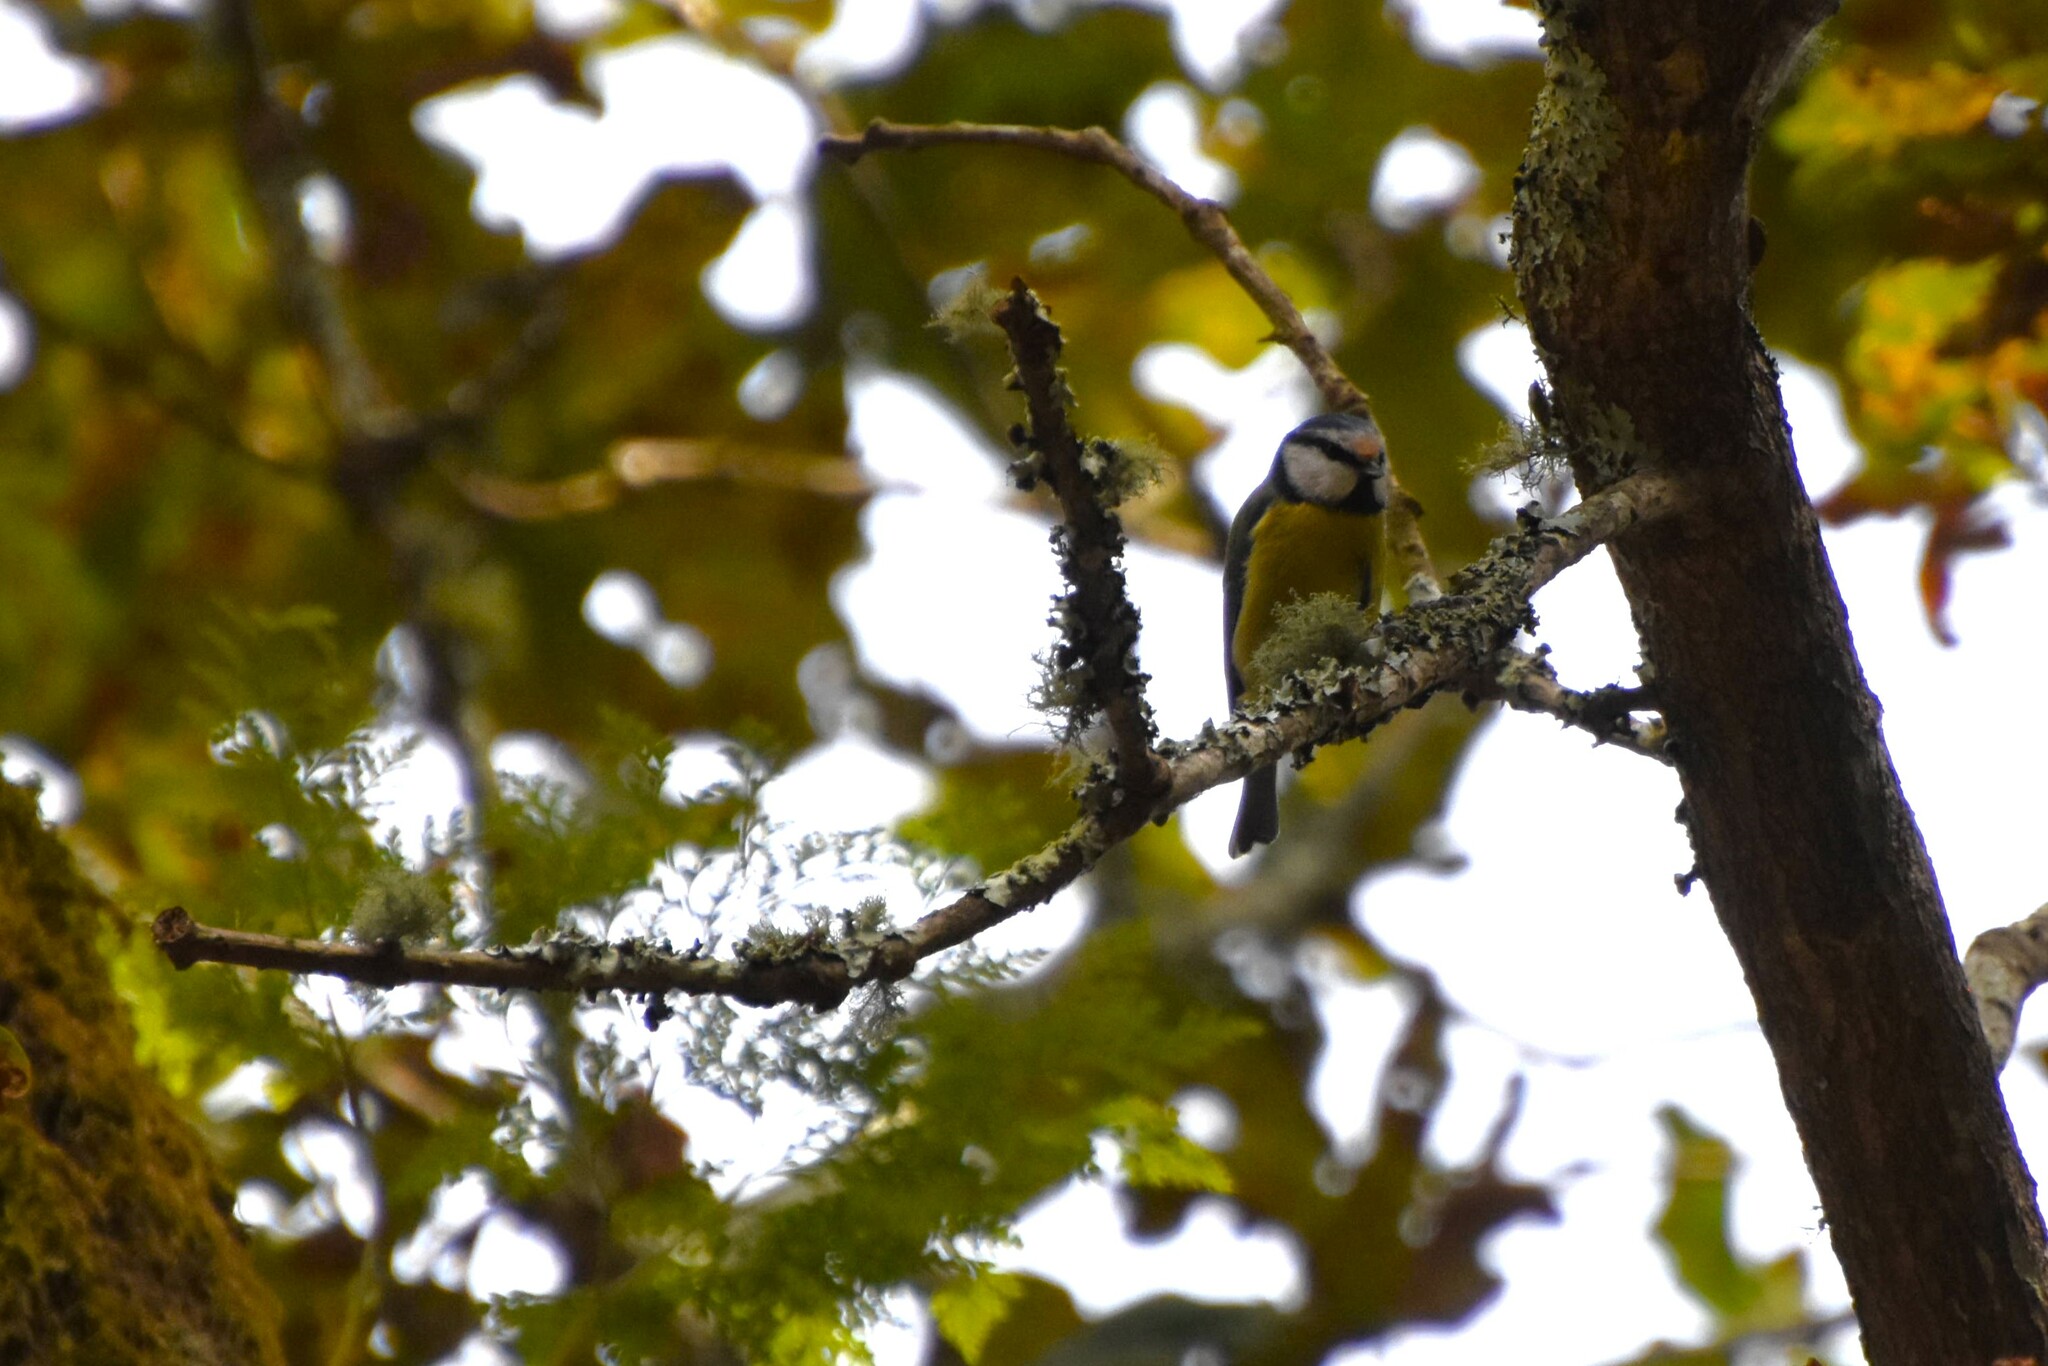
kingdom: Animalia
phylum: Chordata
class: Aves
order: Passeriformes
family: Paridae
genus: Cyanistes
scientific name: Cyanistes caeruleus
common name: Eurasian blue tit
